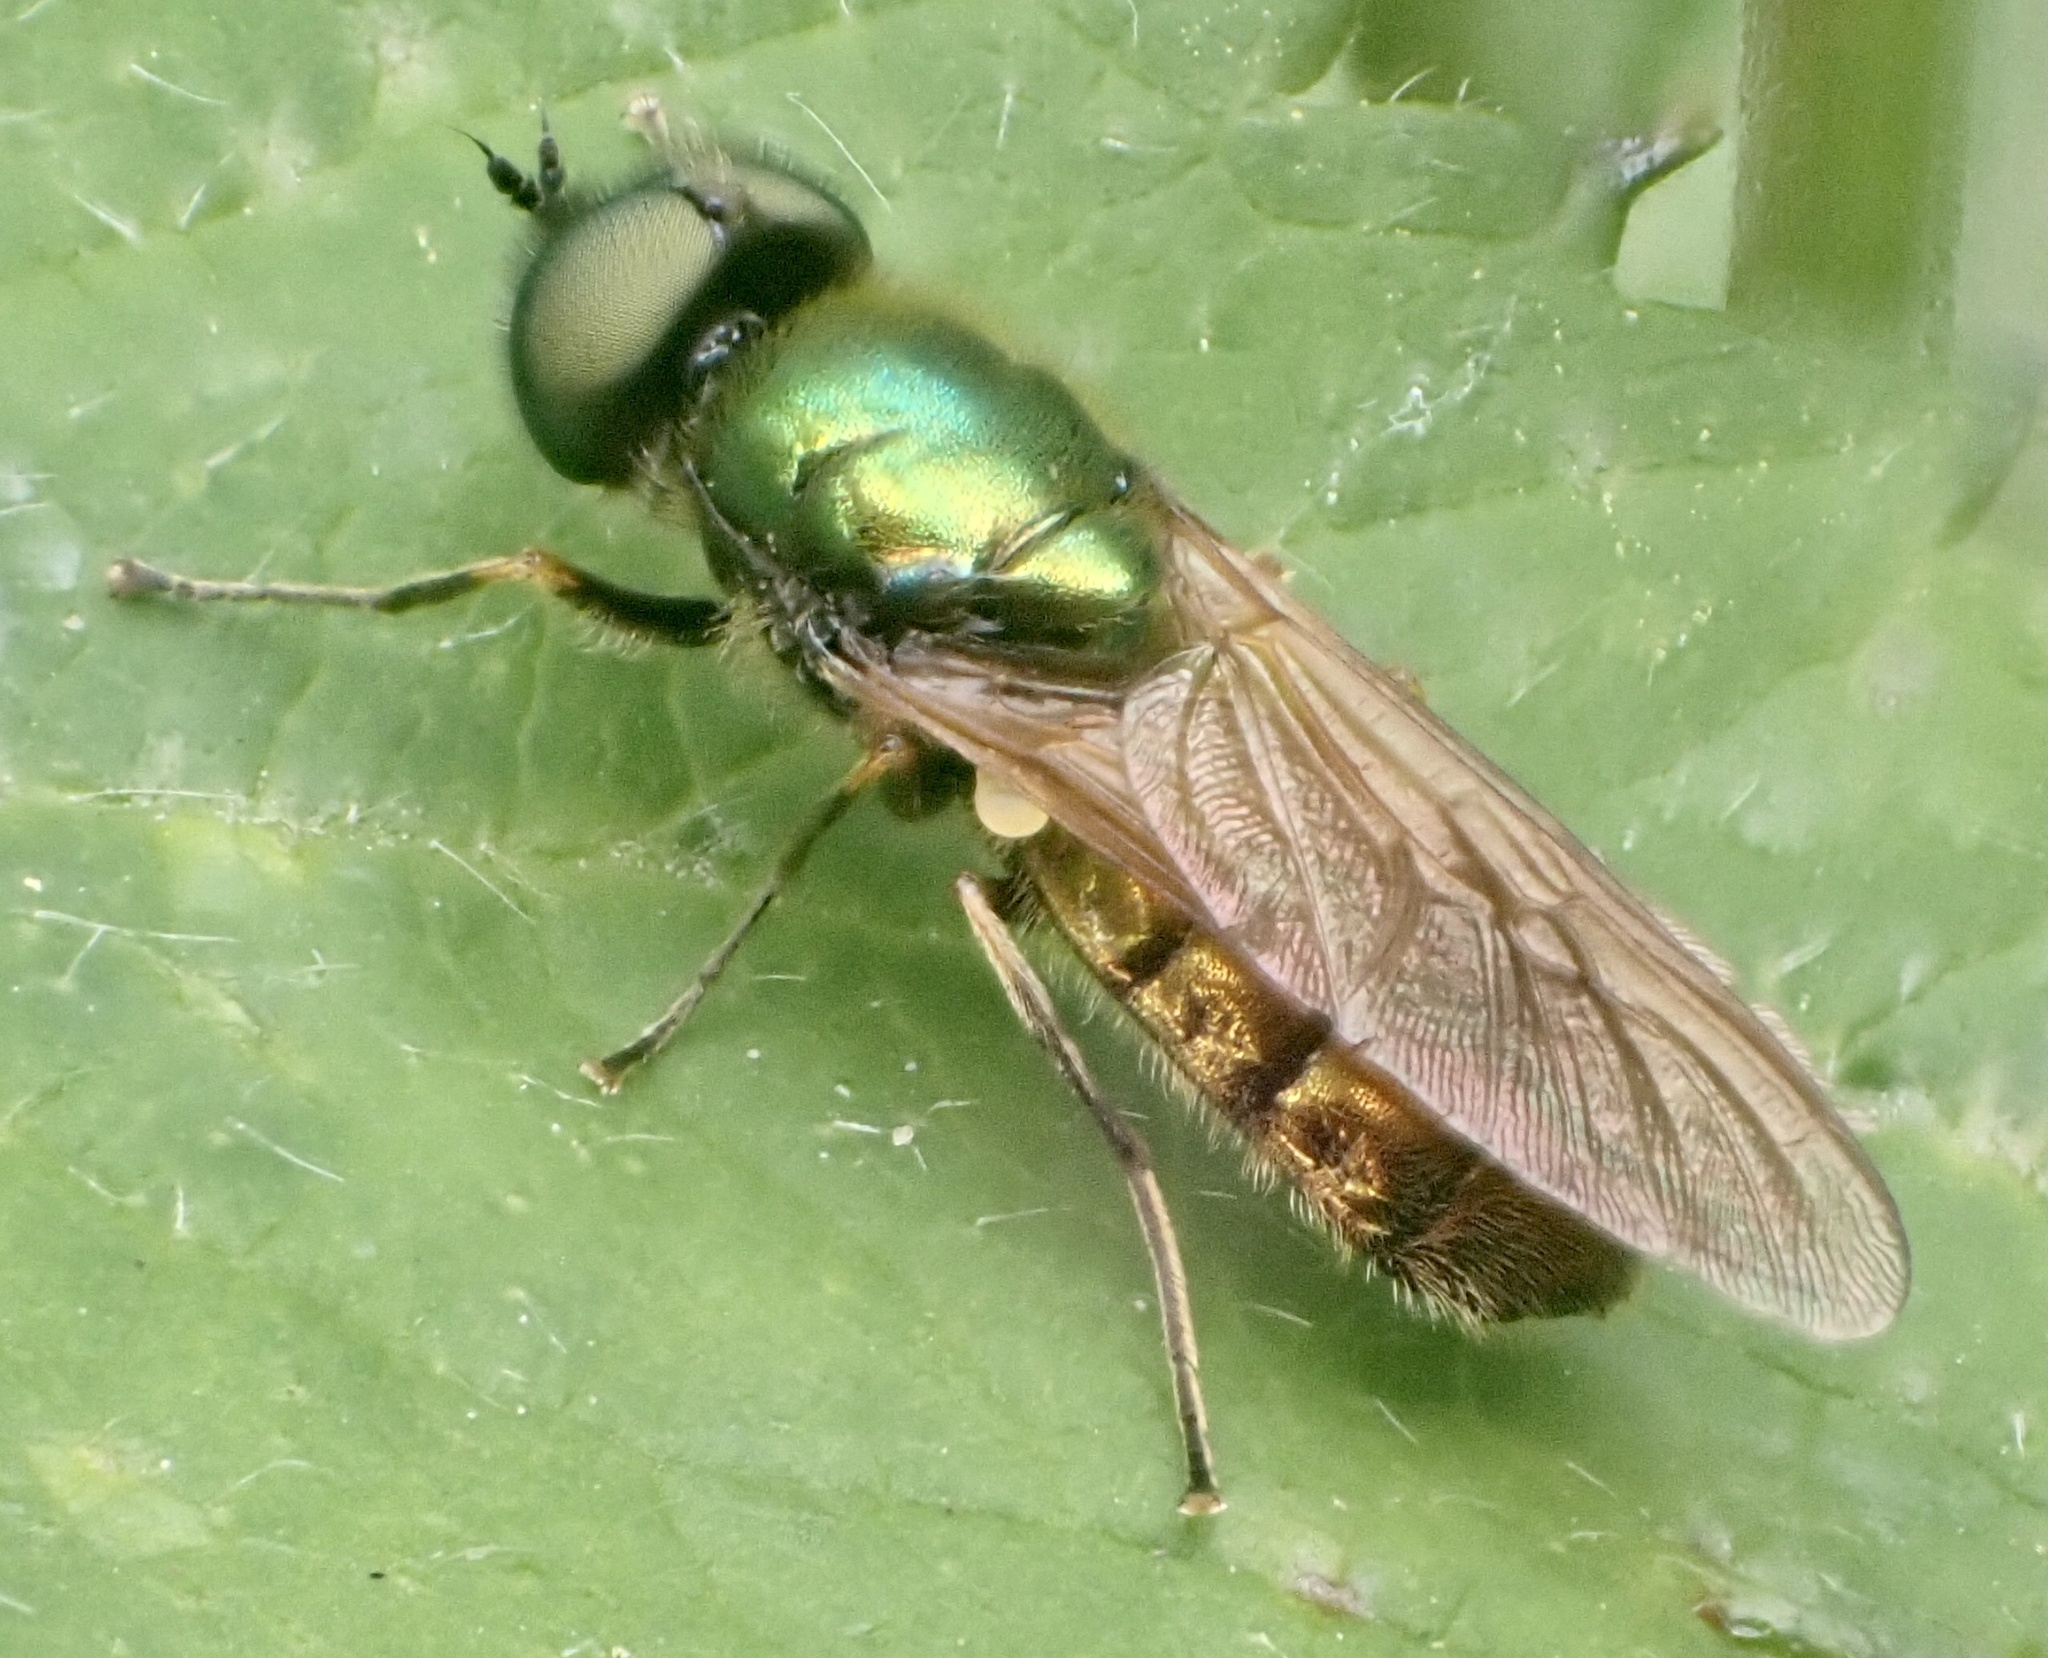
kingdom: Animalia
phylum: Arthropoda
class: Insecta
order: Diptera
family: Stratiomyidae
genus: Chloromyia
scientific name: Chloromyia formosa
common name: Soldier fly
